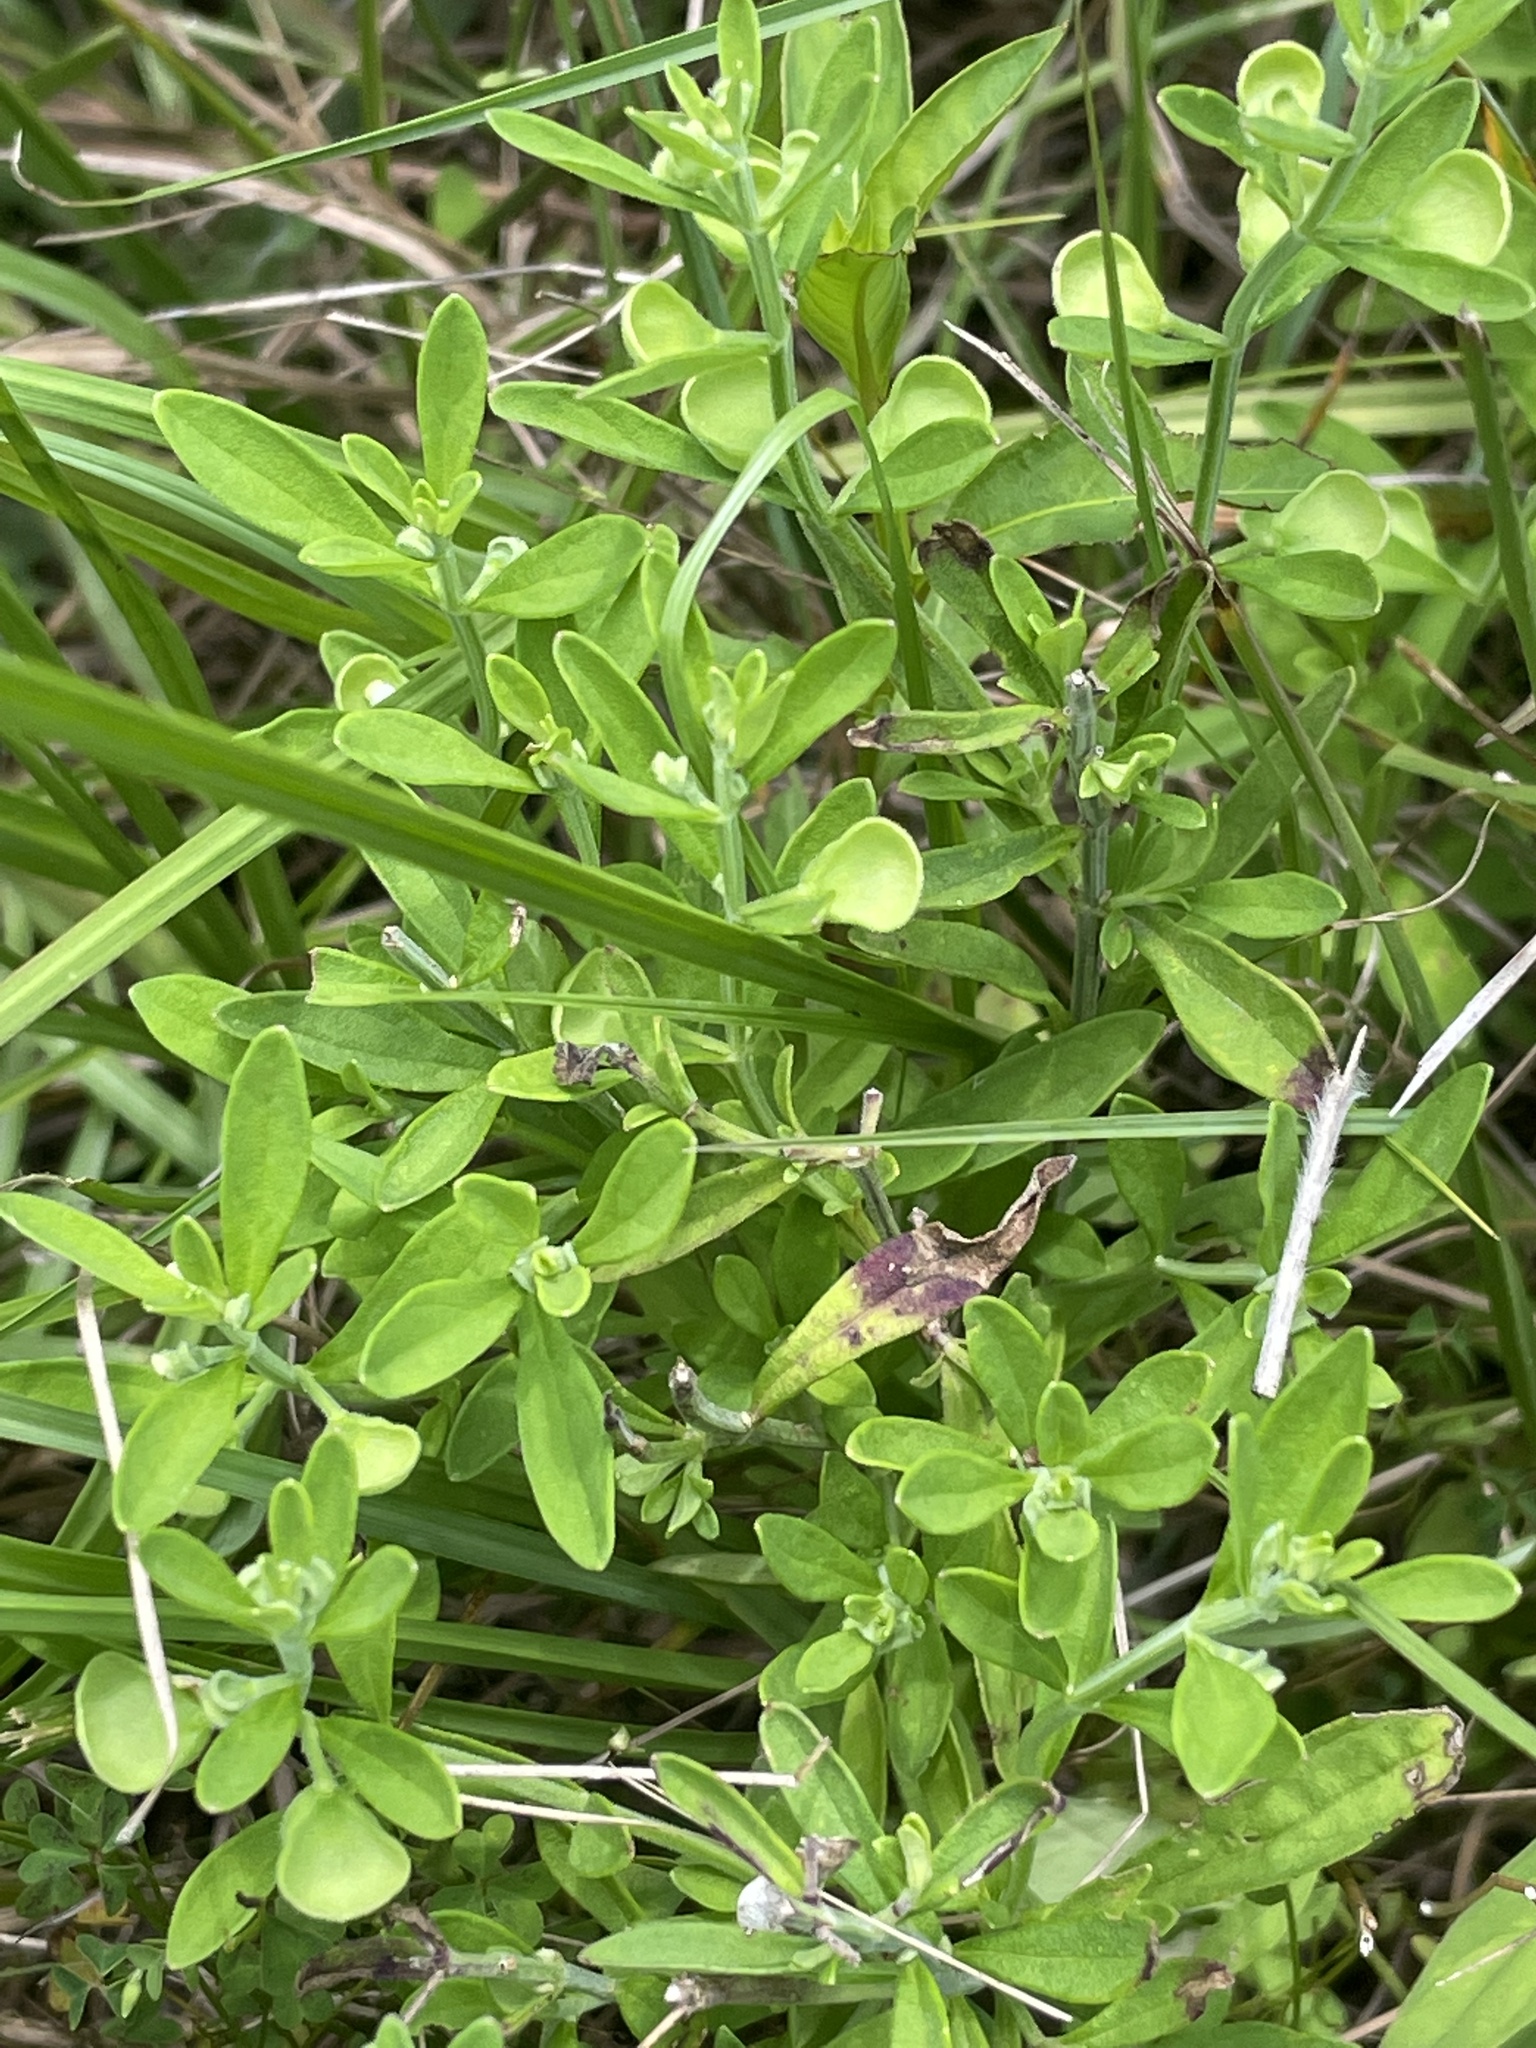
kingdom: Plantae
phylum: Tracheophyta
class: Magnoliopsida
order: Lamiales
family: Lamiaceae
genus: Scutellaria
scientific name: Scutellaria integrifolia
